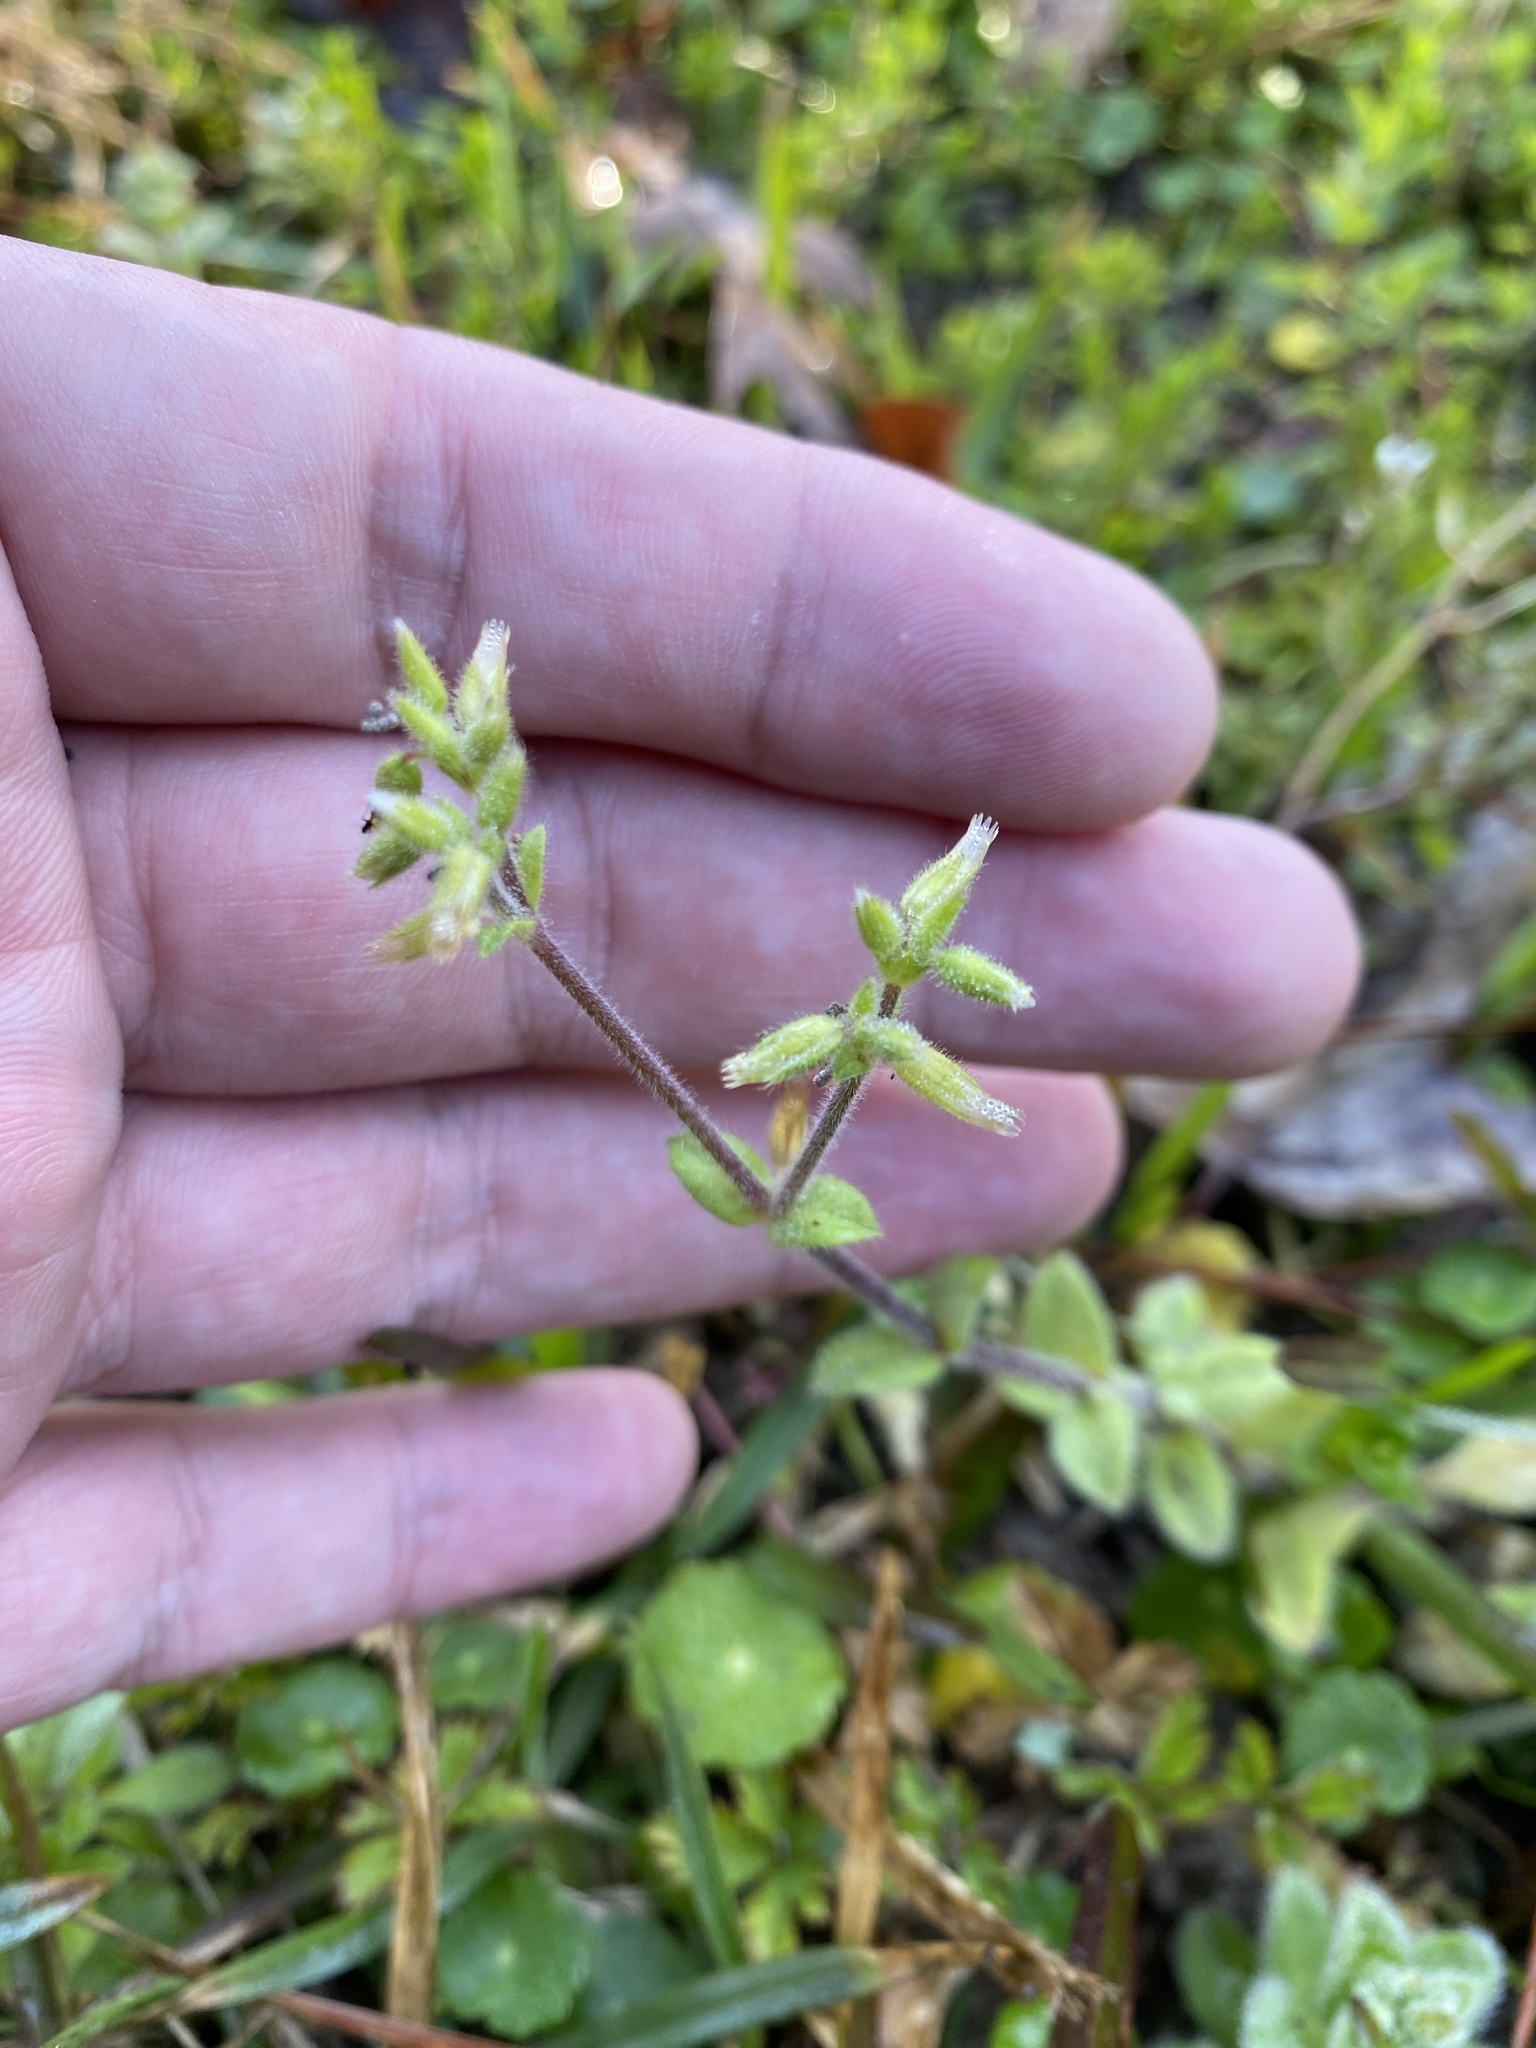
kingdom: Plantae
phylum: Tracheophyta
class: Magnoliopsida
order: Caryophyllales
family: Caryophyllaceae
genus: Cerastium
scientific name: Cerastium glomeratum
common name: Sticky chickweed
